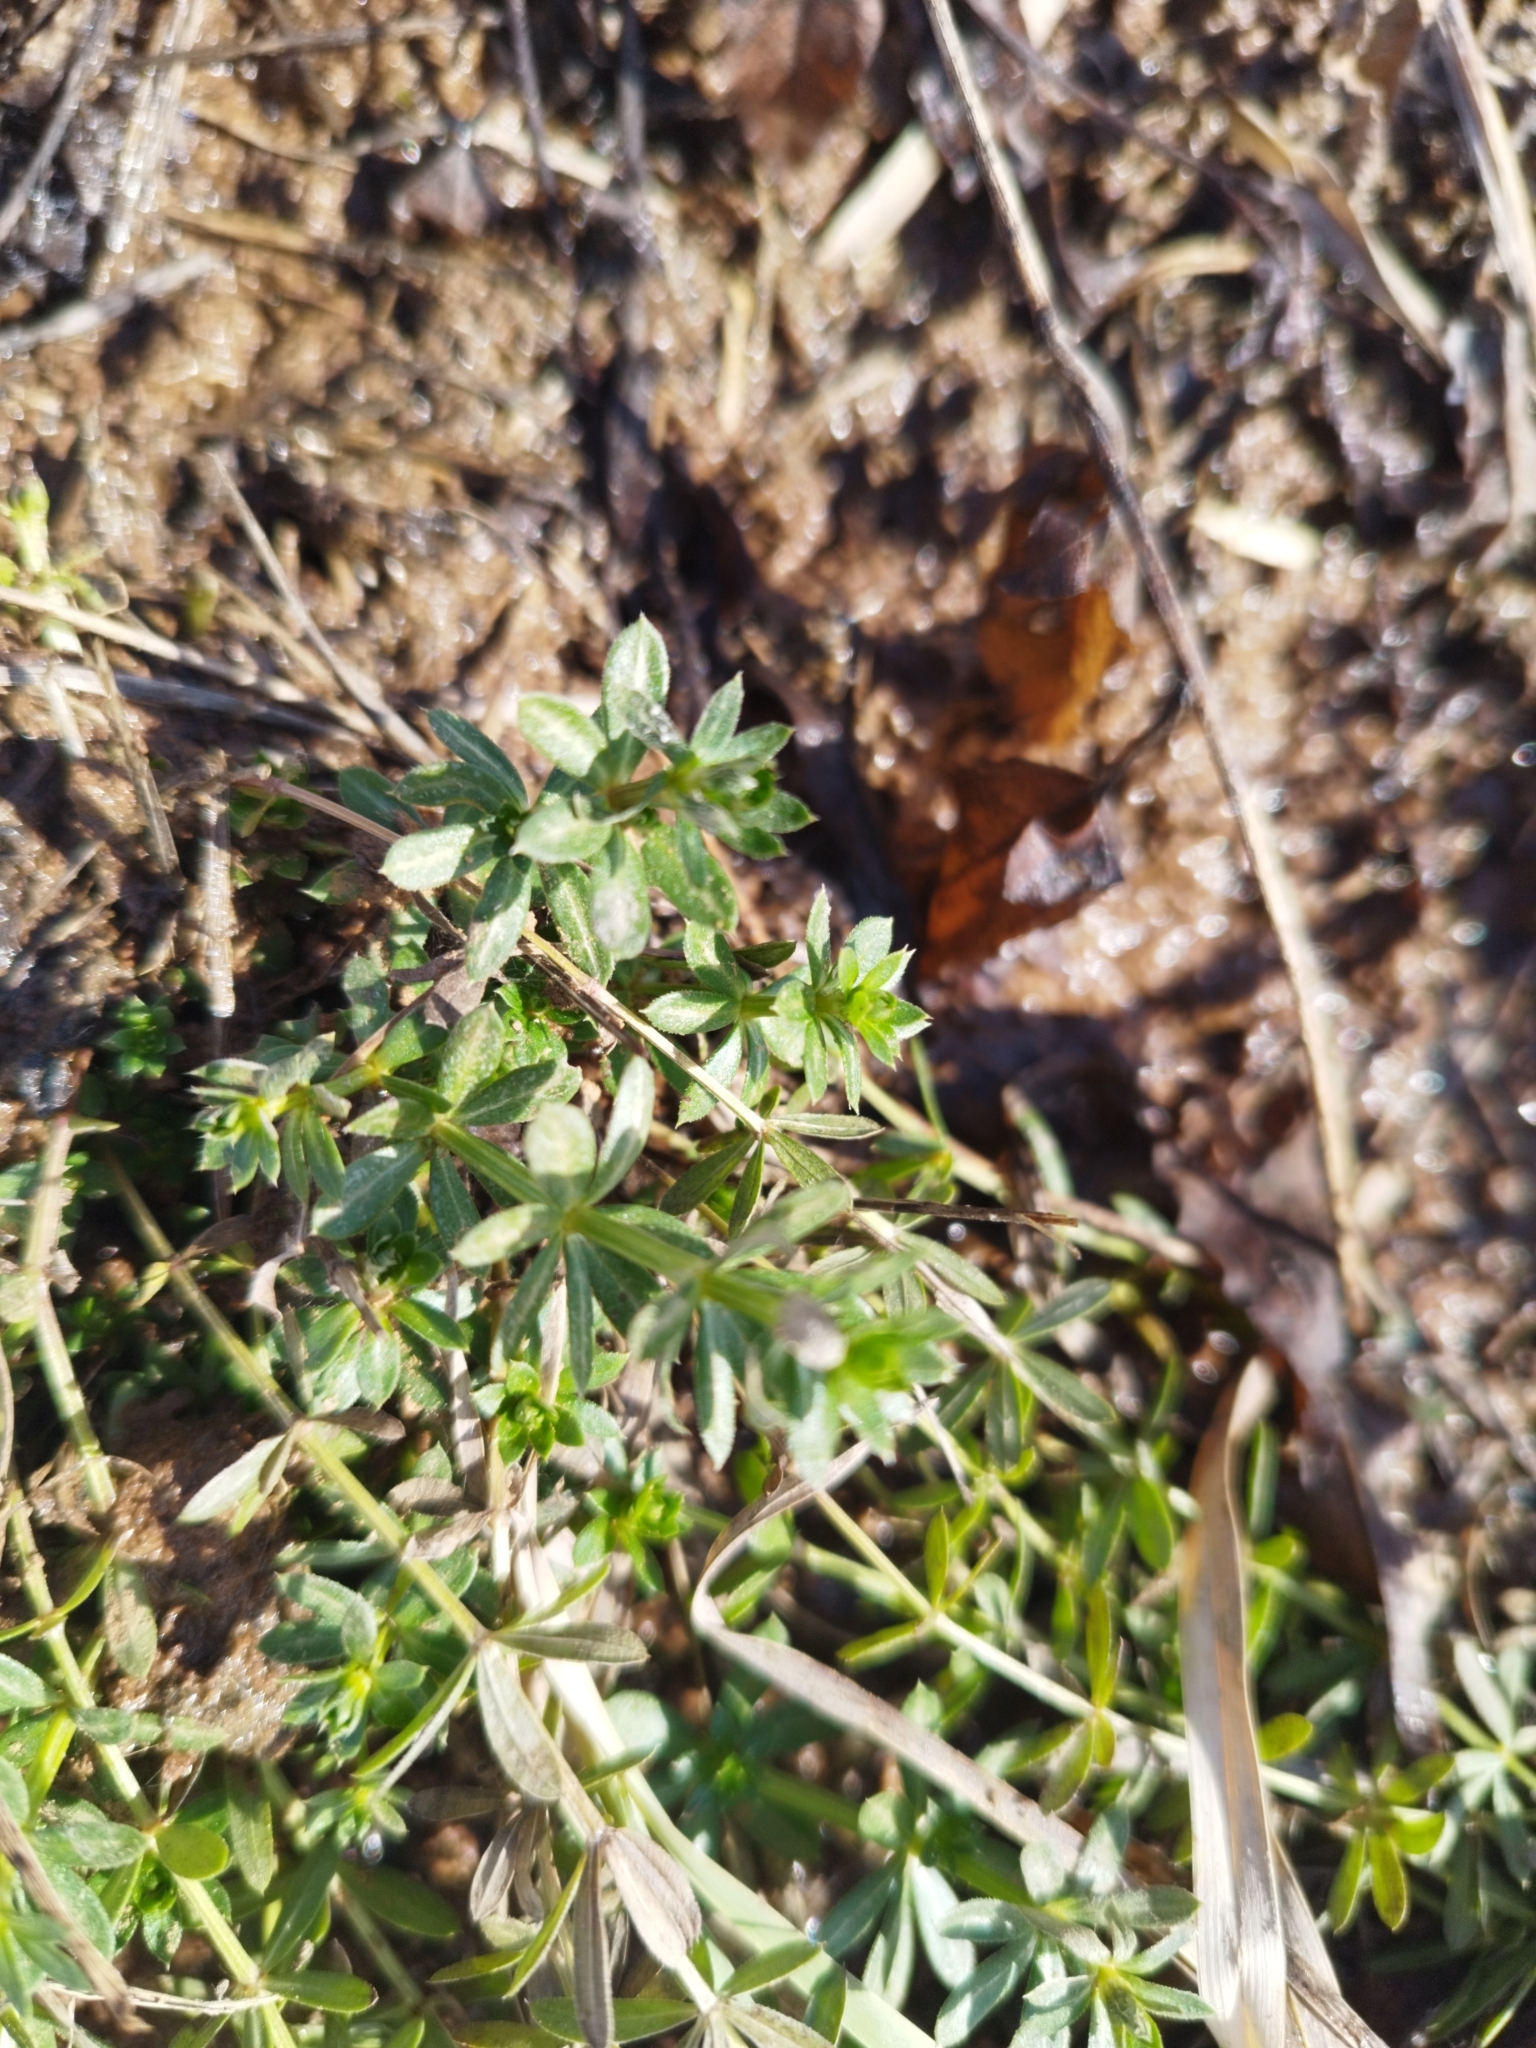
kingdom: Plantae
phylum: Tracheophyta
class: Magnoliopsida
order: Gentianales
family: Rubiaceae
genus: Galium
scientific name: Galium mollugo
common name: Hedge bedstraw
